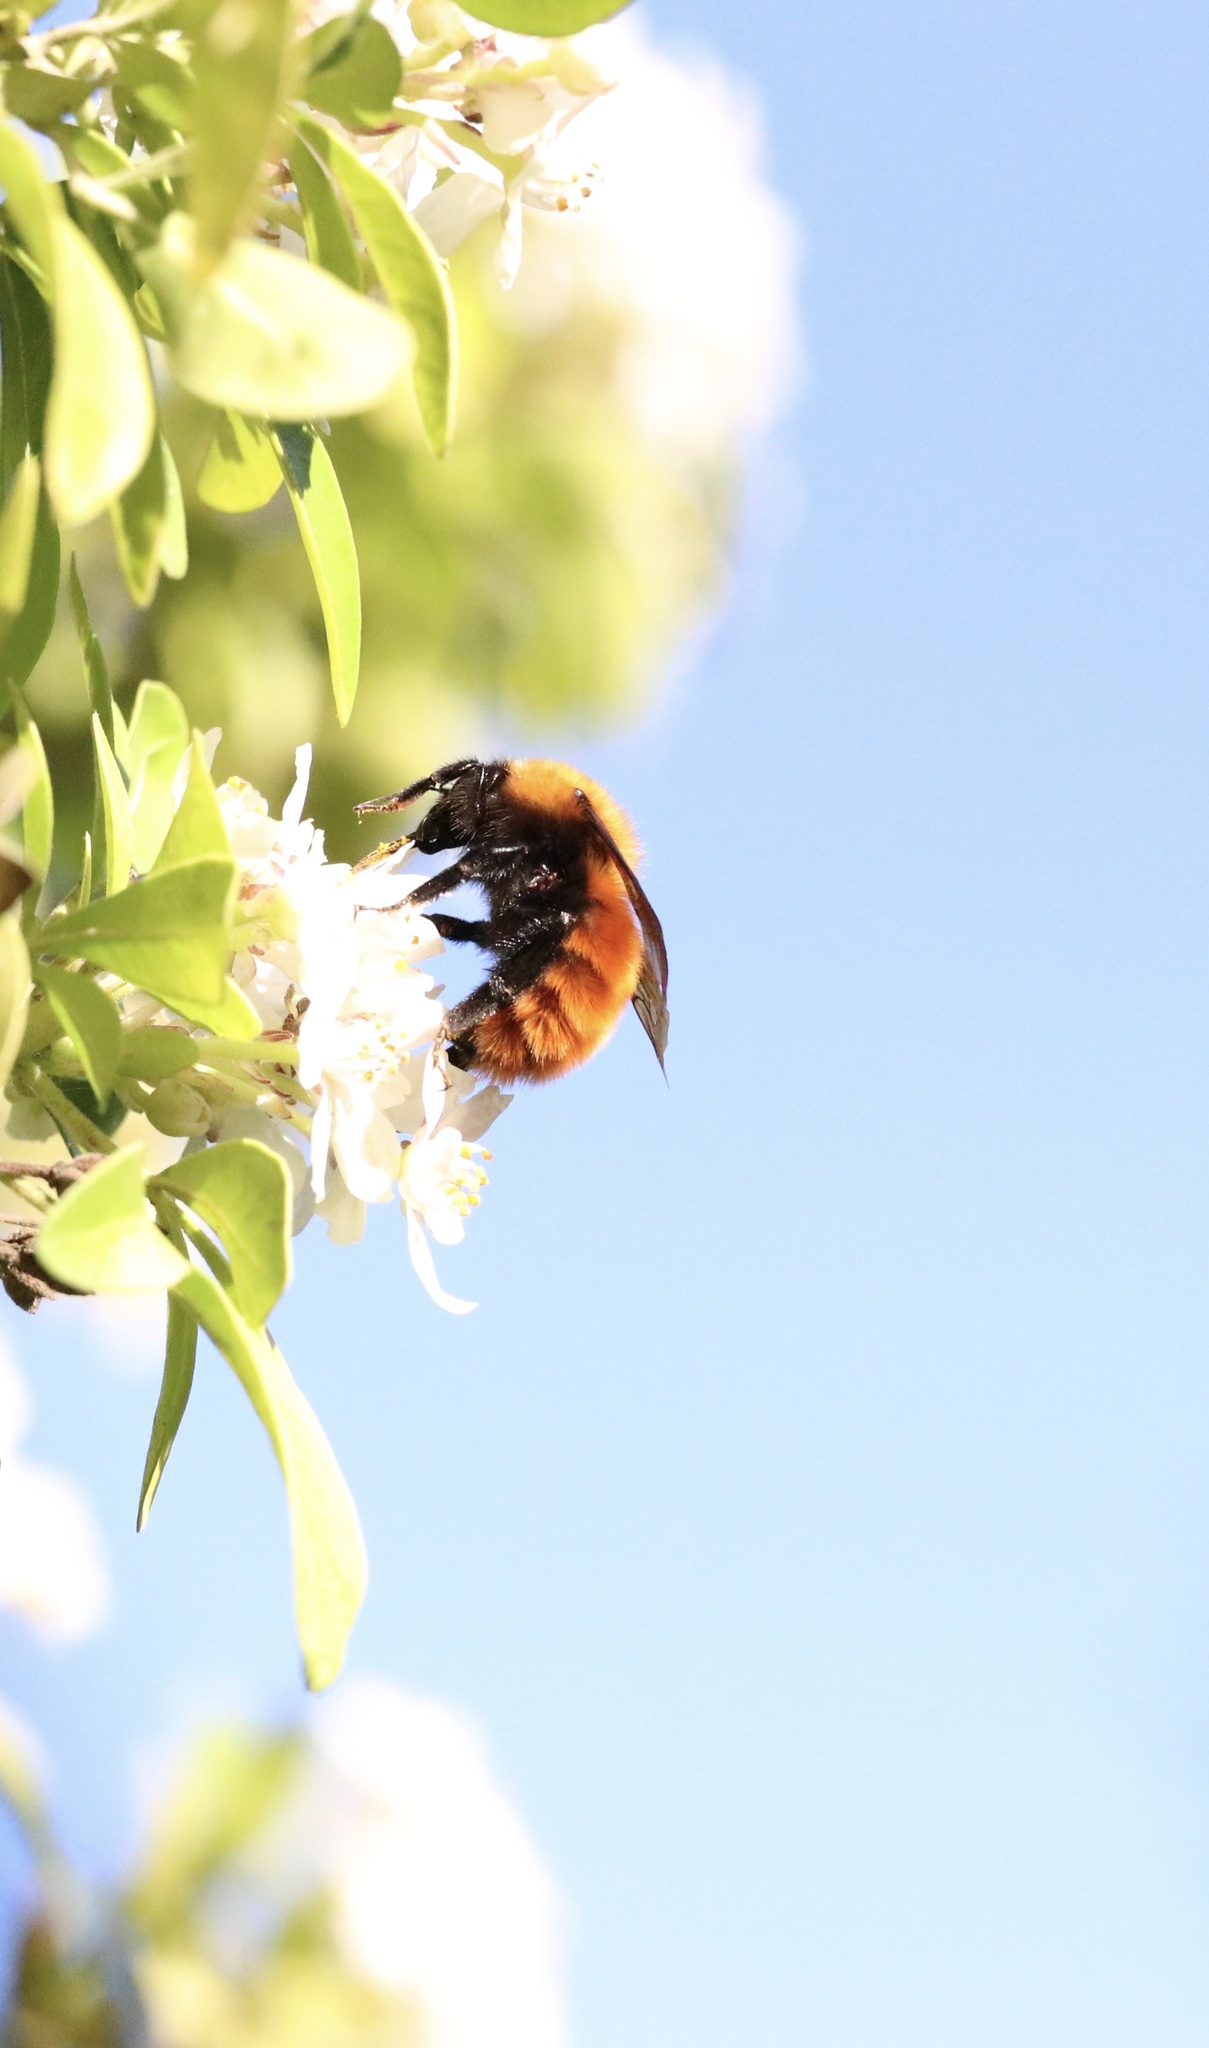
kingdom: Animalia
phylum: Arthropoda
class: Insecta
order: Hymenoptera
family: Apidae
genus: Bombus
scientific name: Bombus dahlbomii
